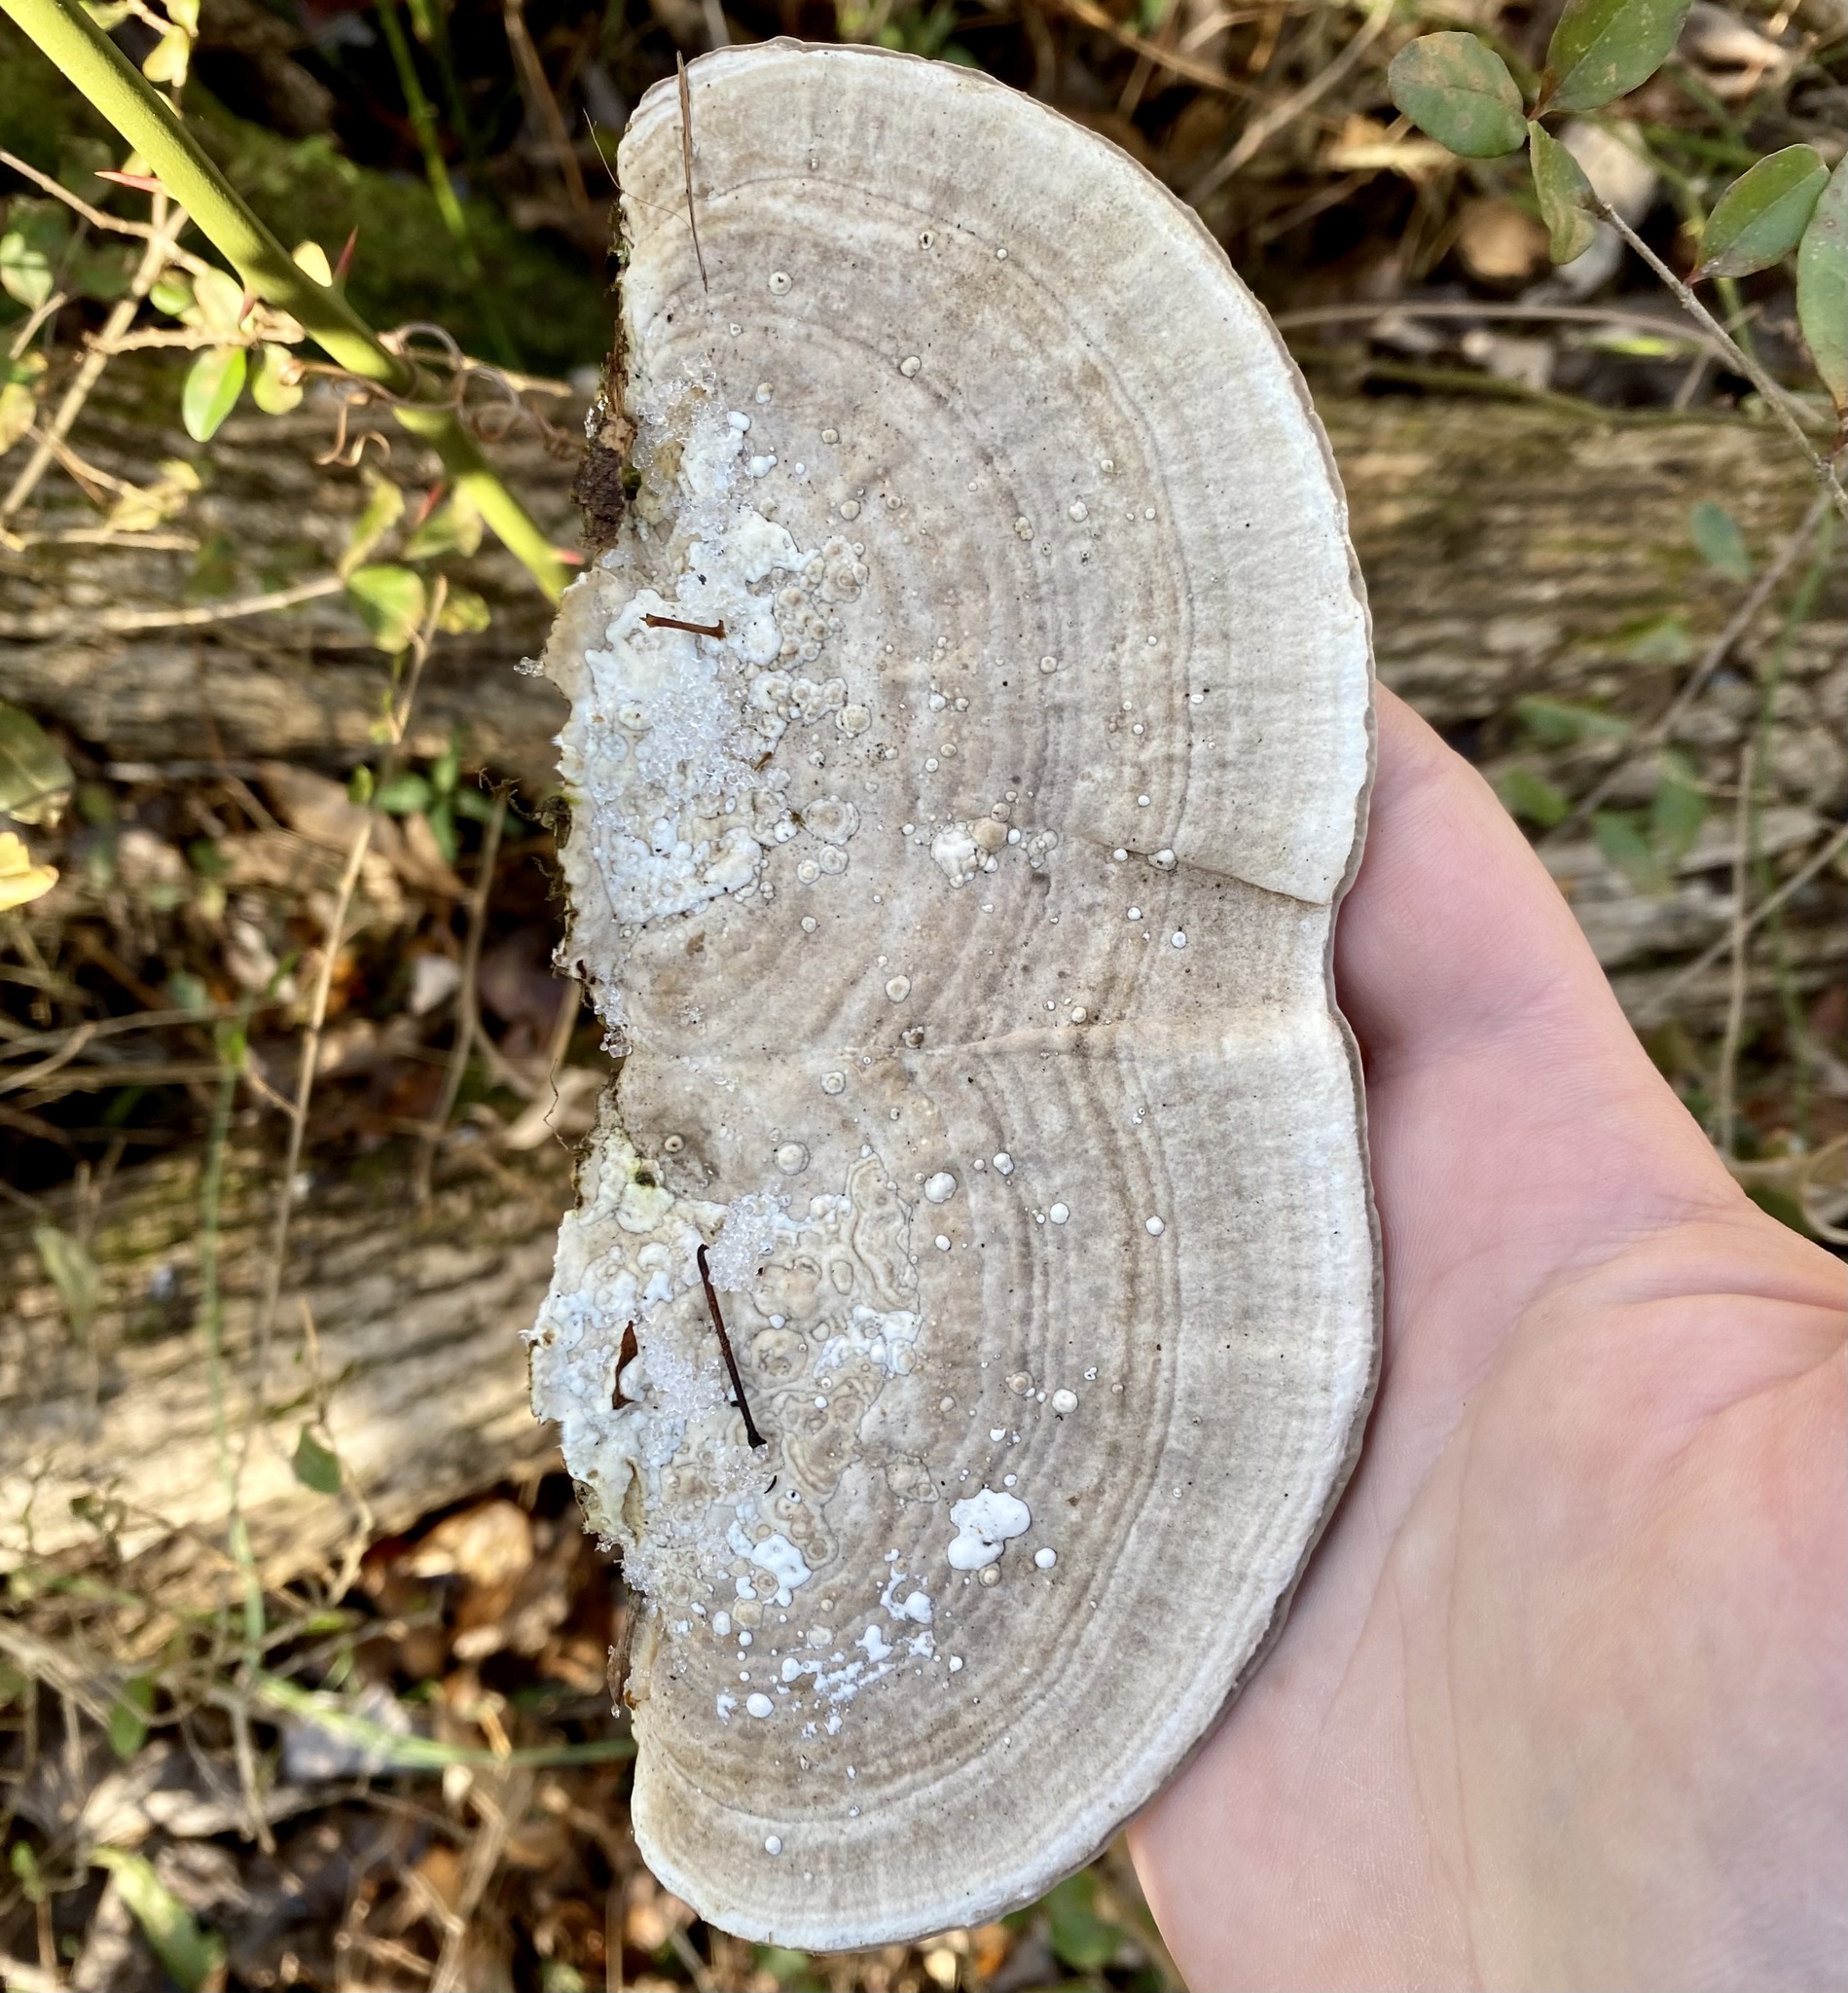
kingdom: Fungi
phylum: Basidiomycota
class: Agaricomycetes
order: Polyporales
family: Polyporaceae
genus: Trametes
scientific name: Trametes lactinea
